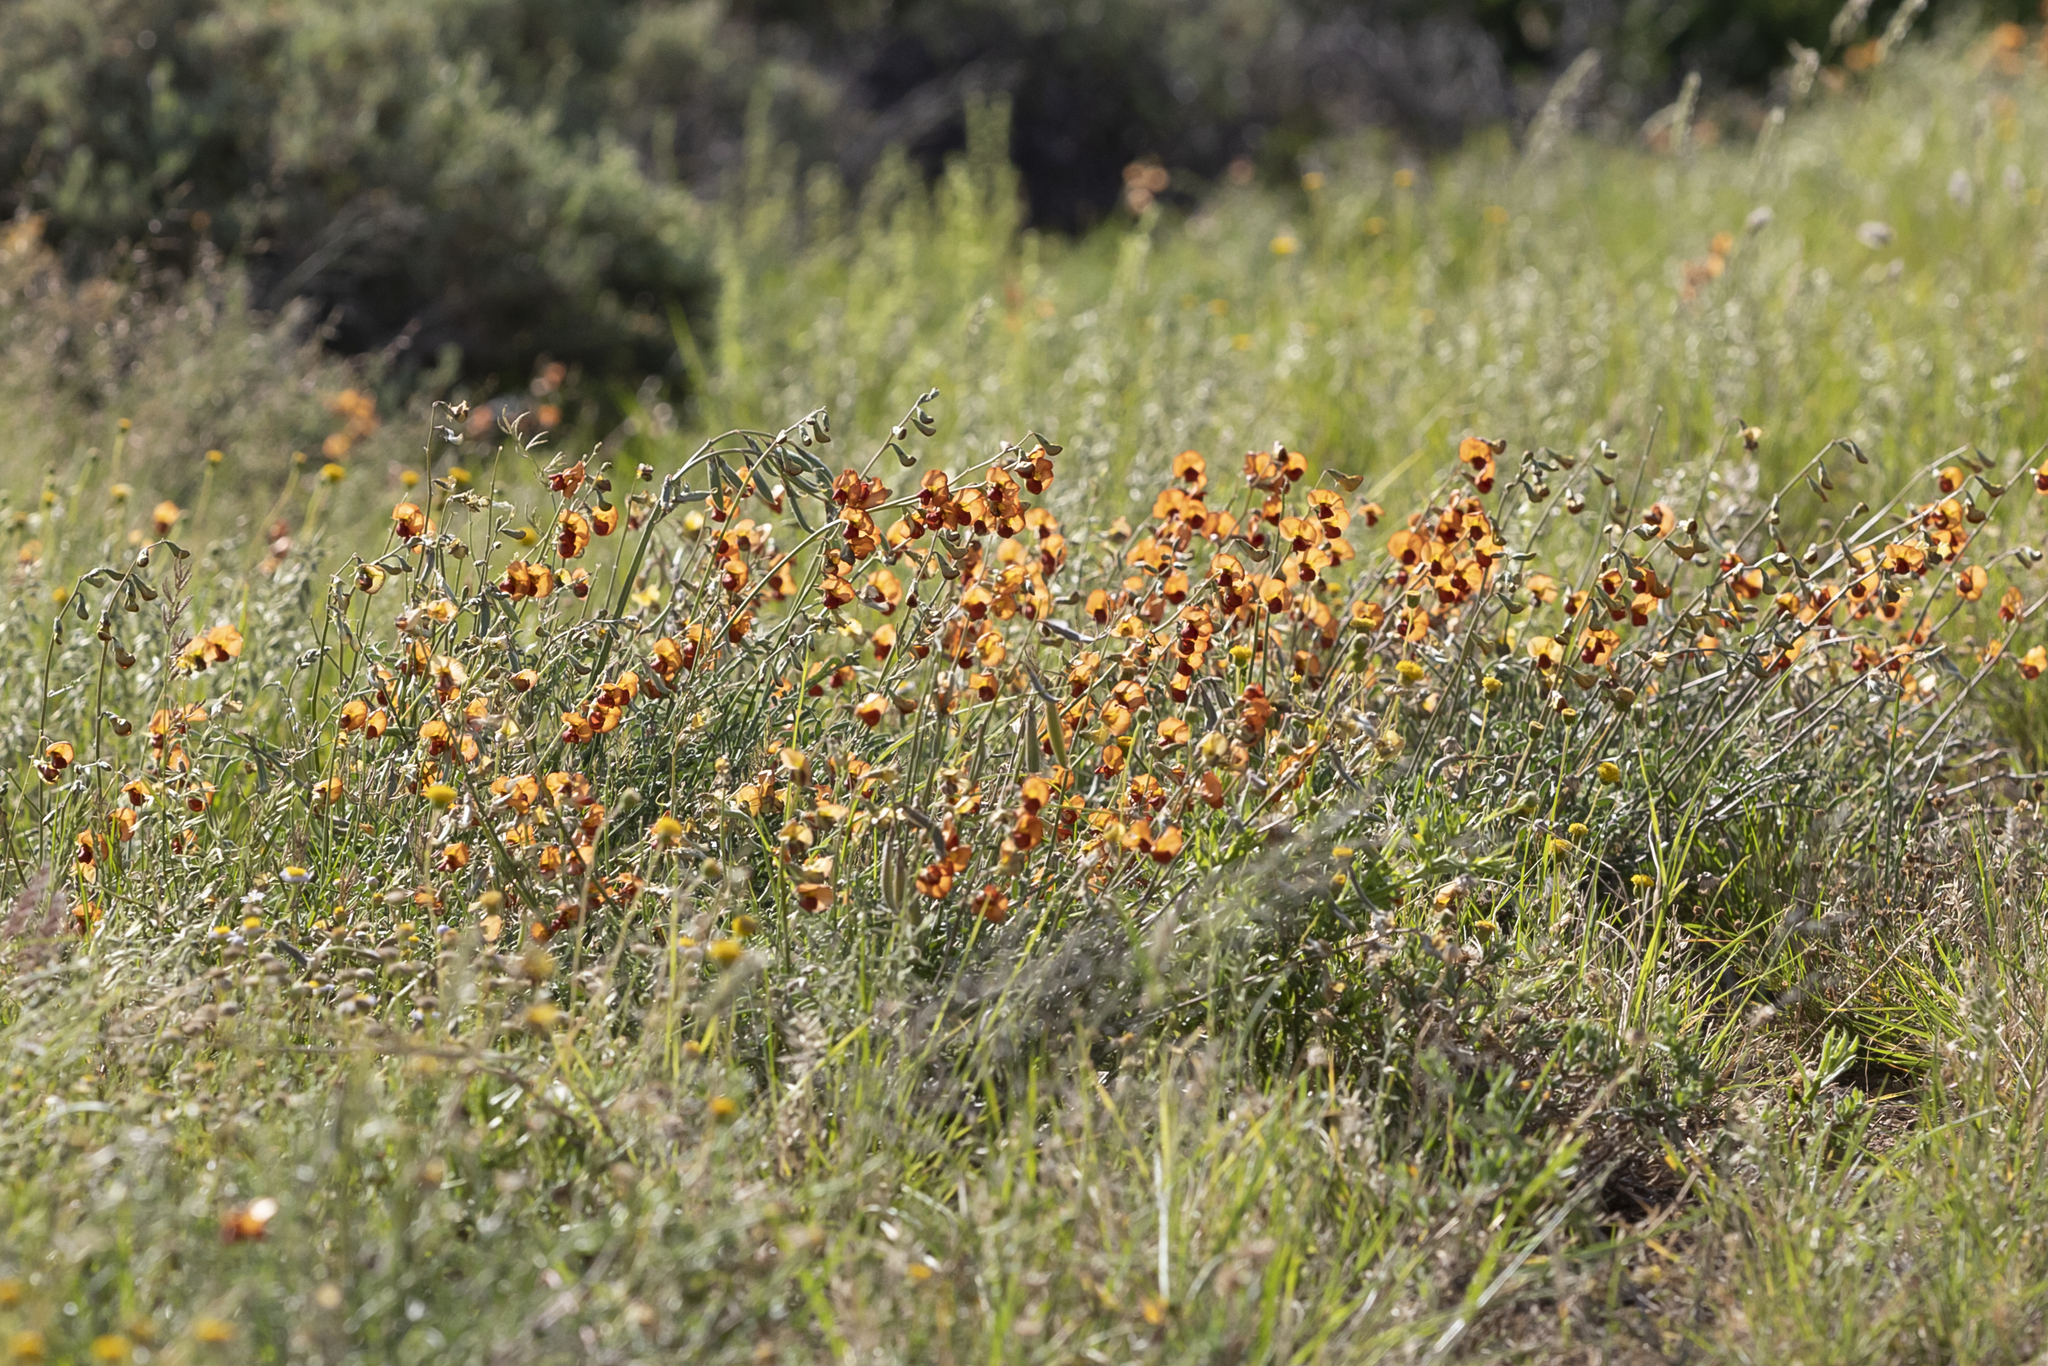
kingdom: Plantae
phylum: Tracheophyta
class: Magnoliopsida
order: Fabales
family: Fabaceae
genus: Swainsona
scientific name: Swainsona stipularis
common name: Orange darling-pea
